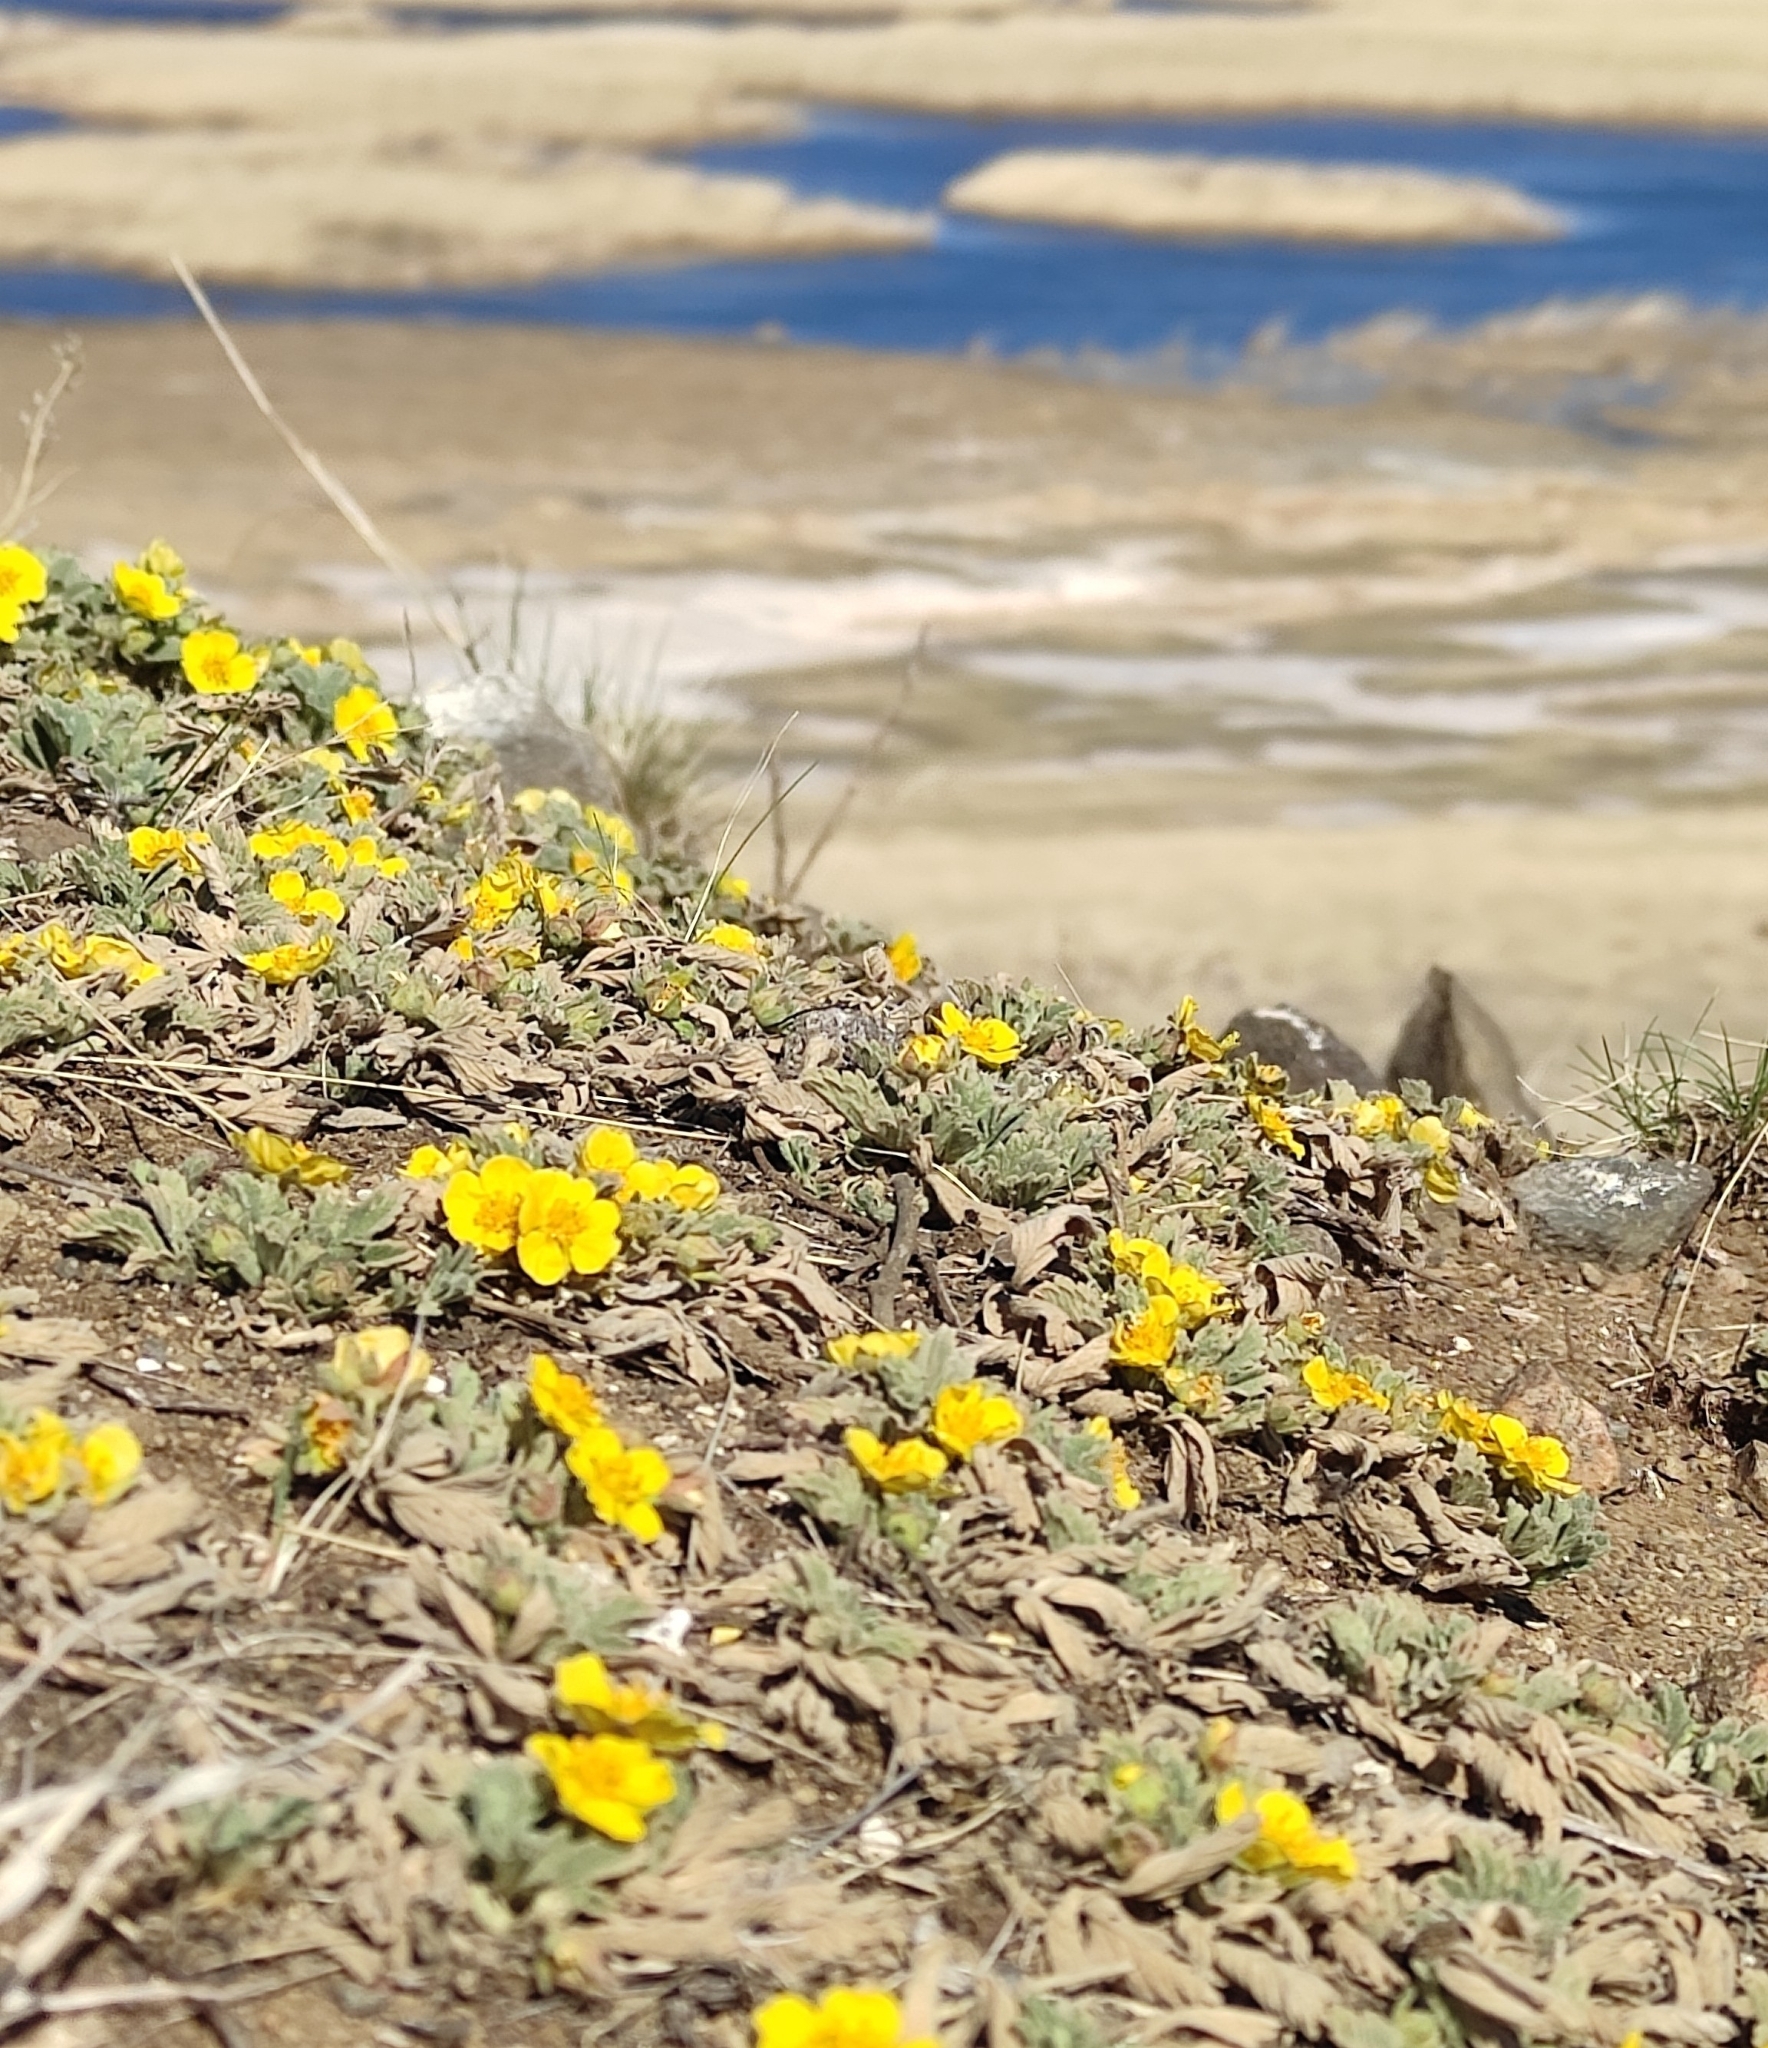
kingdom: Plantae
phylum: Tracheophyta
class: Magnoliopsida
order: Rosales
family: Rosaceae
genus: Potentilla
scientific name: Potentilla acaulis
